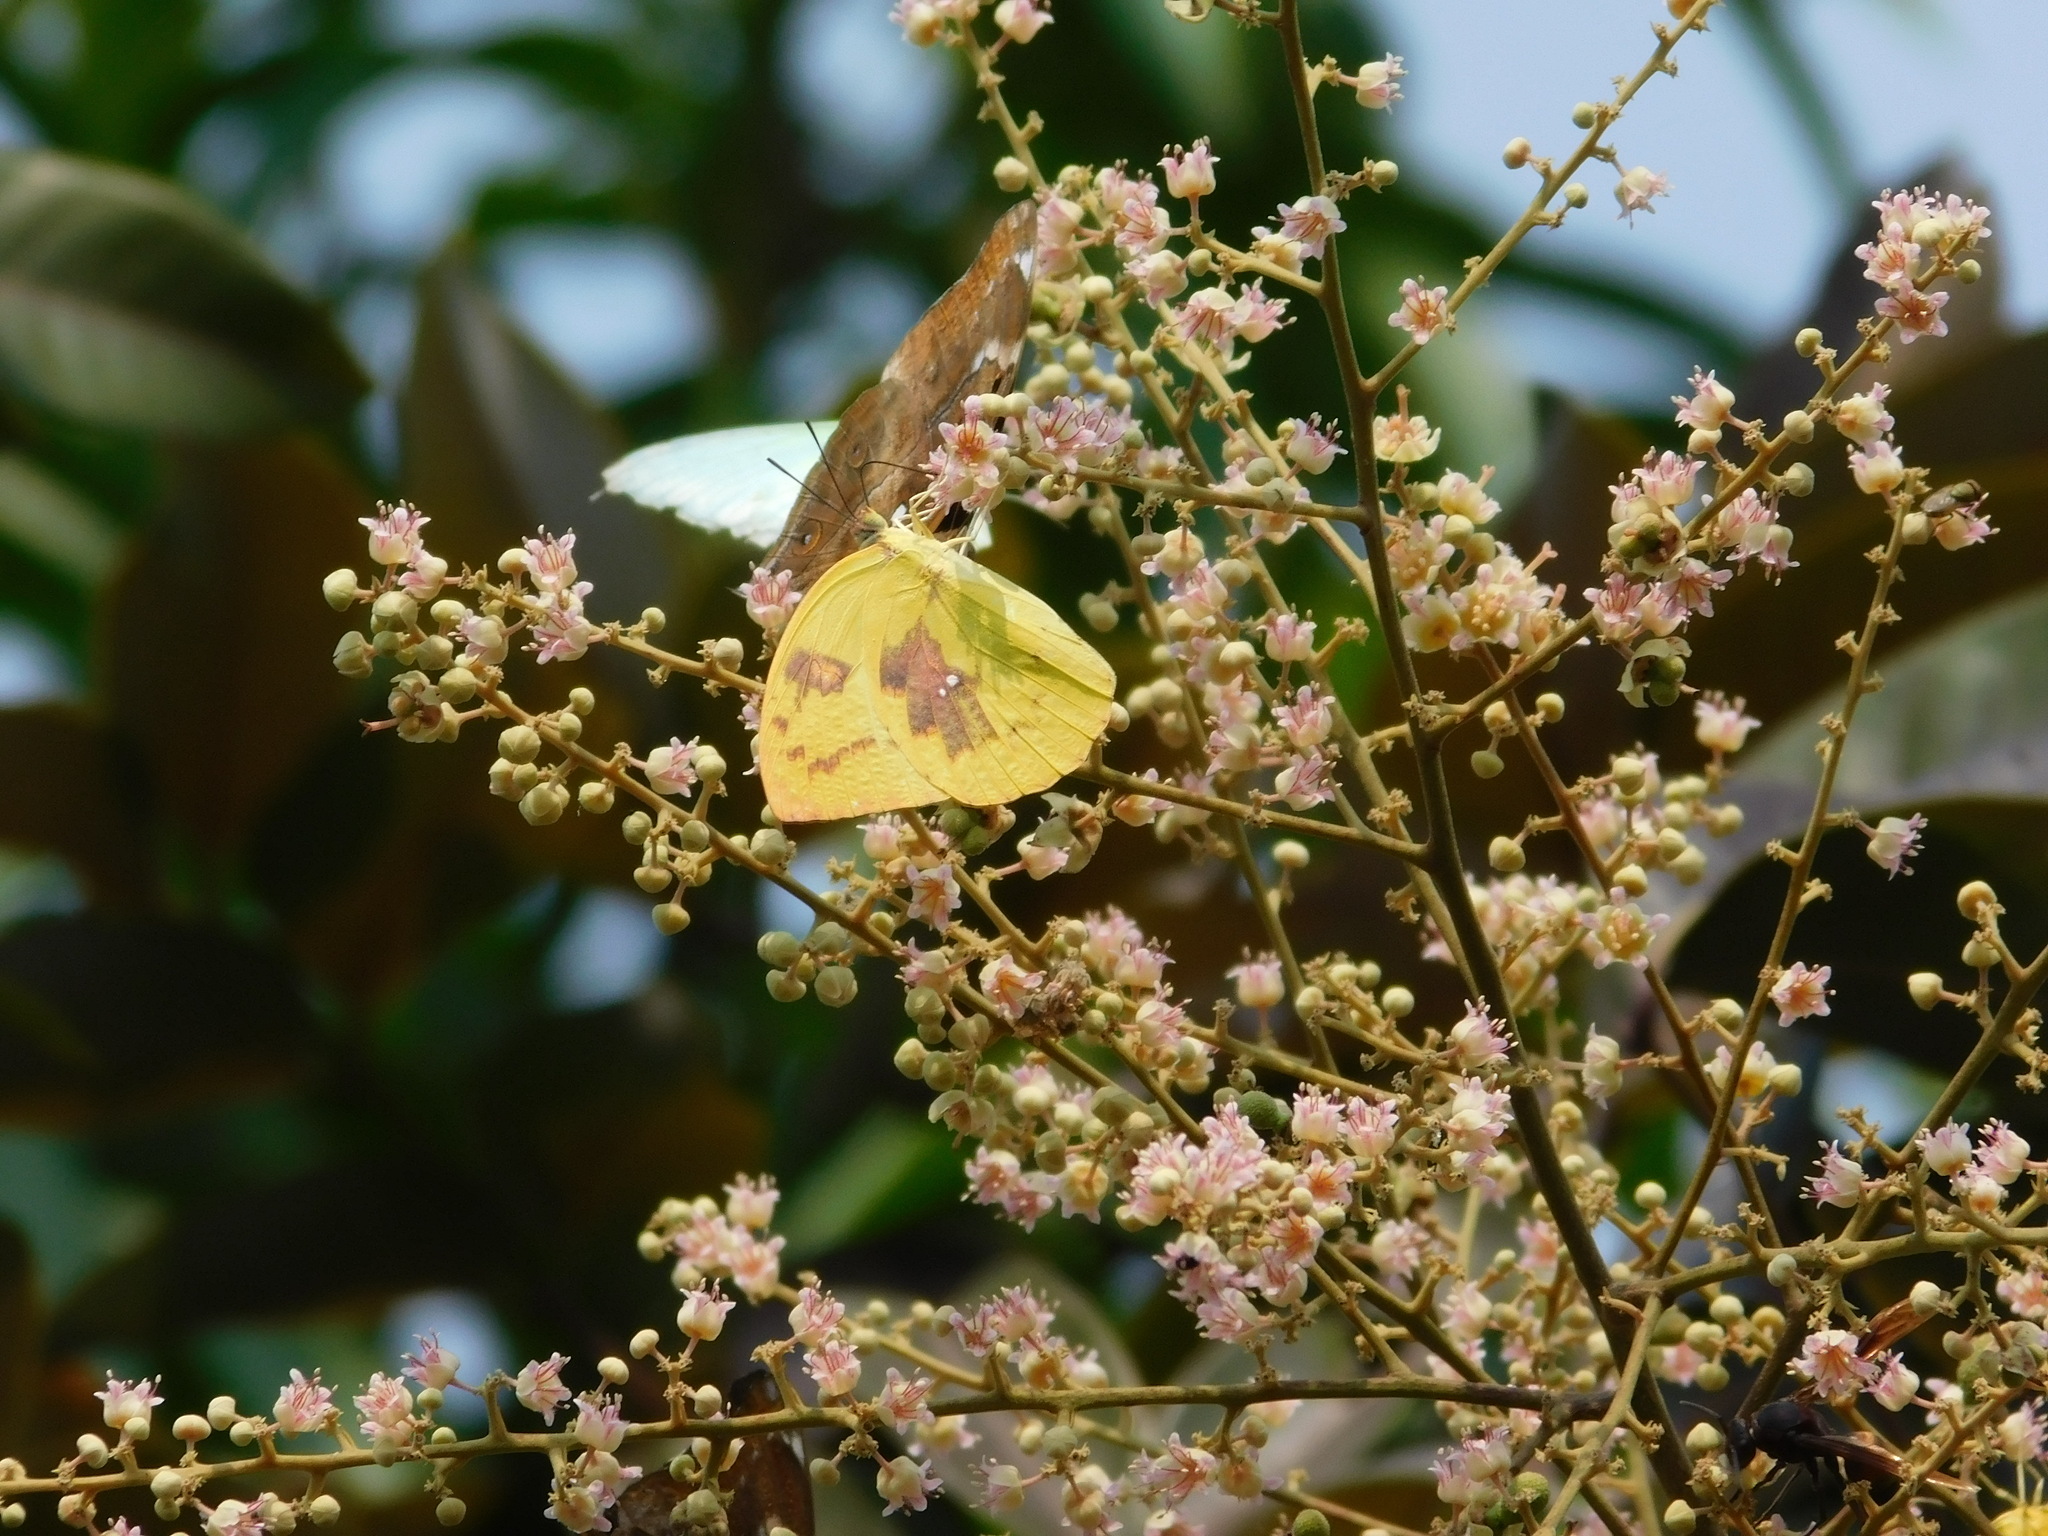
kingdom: Animalia
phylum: Arthropoda
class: Insecta
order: Lepidoptera
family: Pieridae
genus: Catopsilia
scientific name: Catopsilia pomona
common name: Common emigrant
